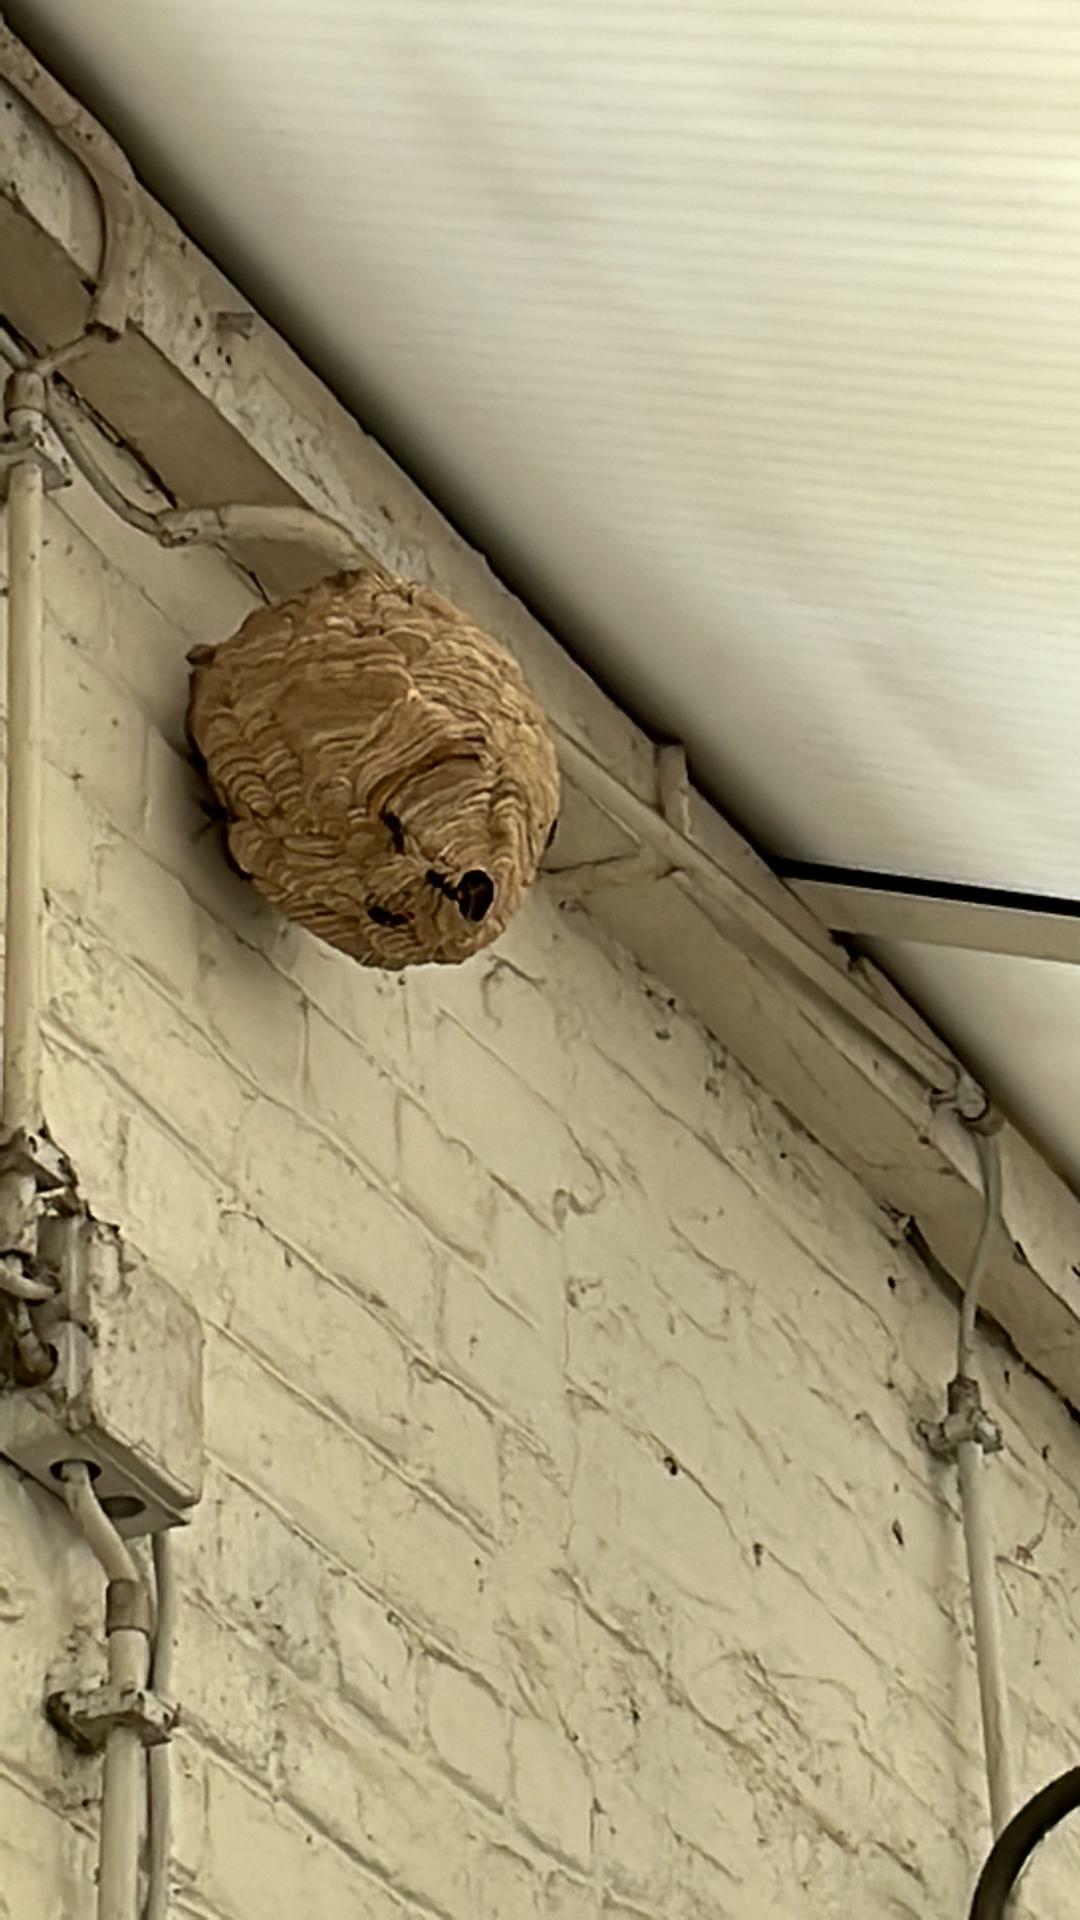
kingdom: Animalia
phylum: Arthropoda
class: Insecta
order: Hymenoptera
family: Vespidae
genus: Vespa
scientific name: Vespa velutina
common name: Asian hornet
